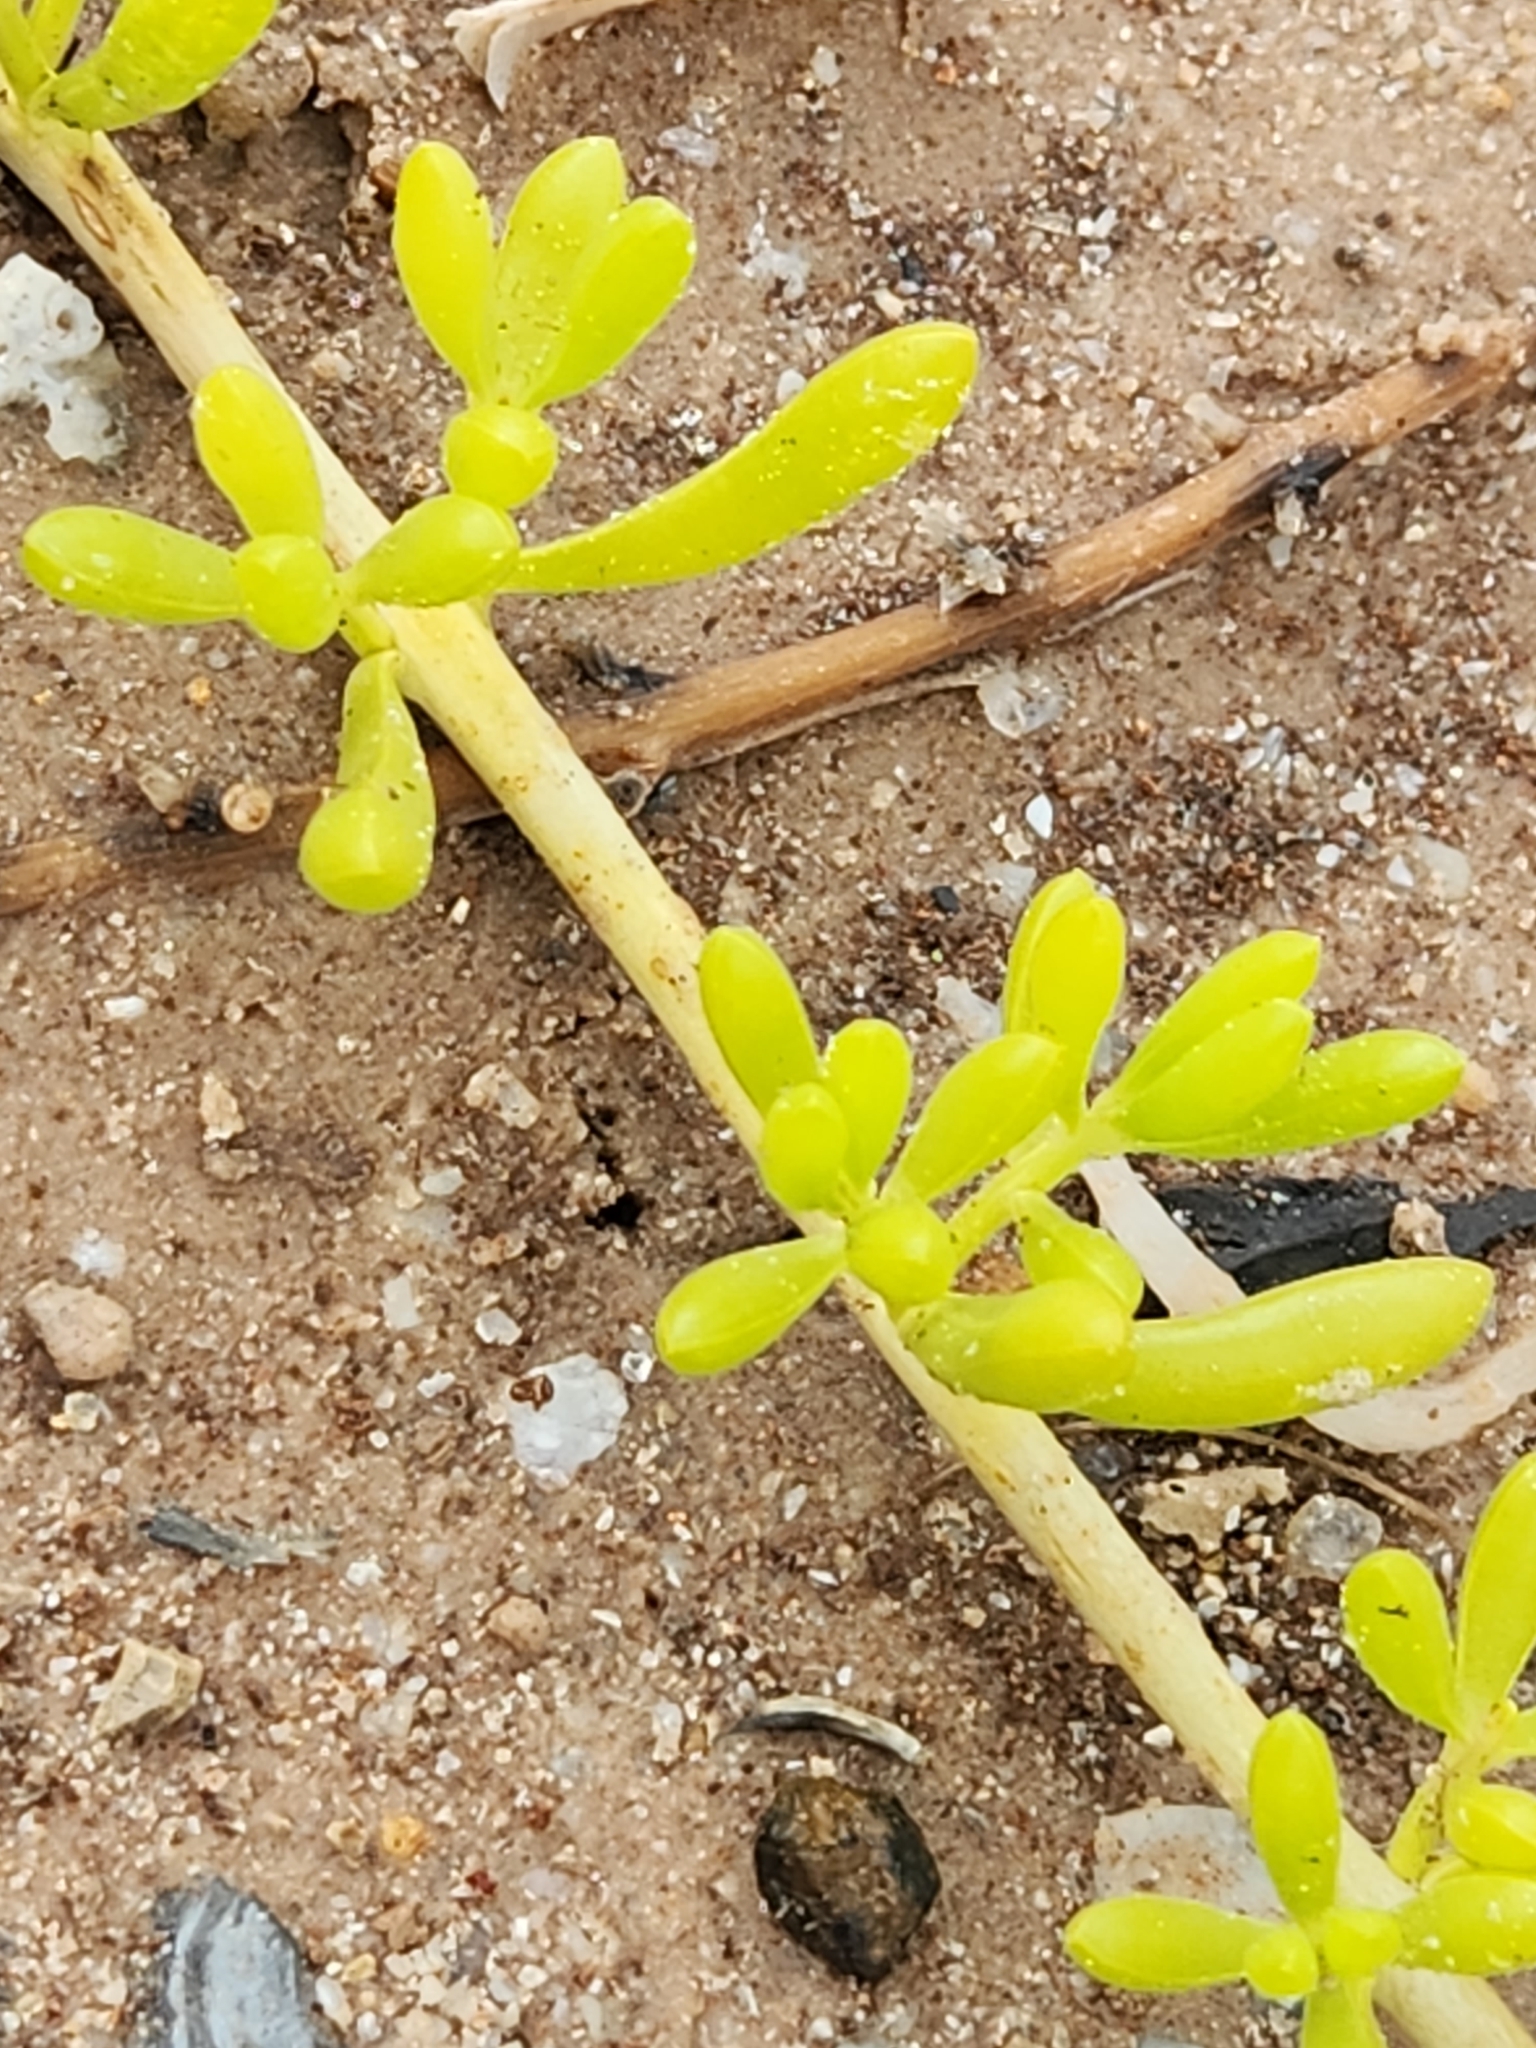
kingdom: Plantae
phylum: Tracheophyta
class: Magnoliopsida
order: Brassicales
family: Bataceae
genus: Batis
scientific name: Batis maritima
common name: Turtleweed
